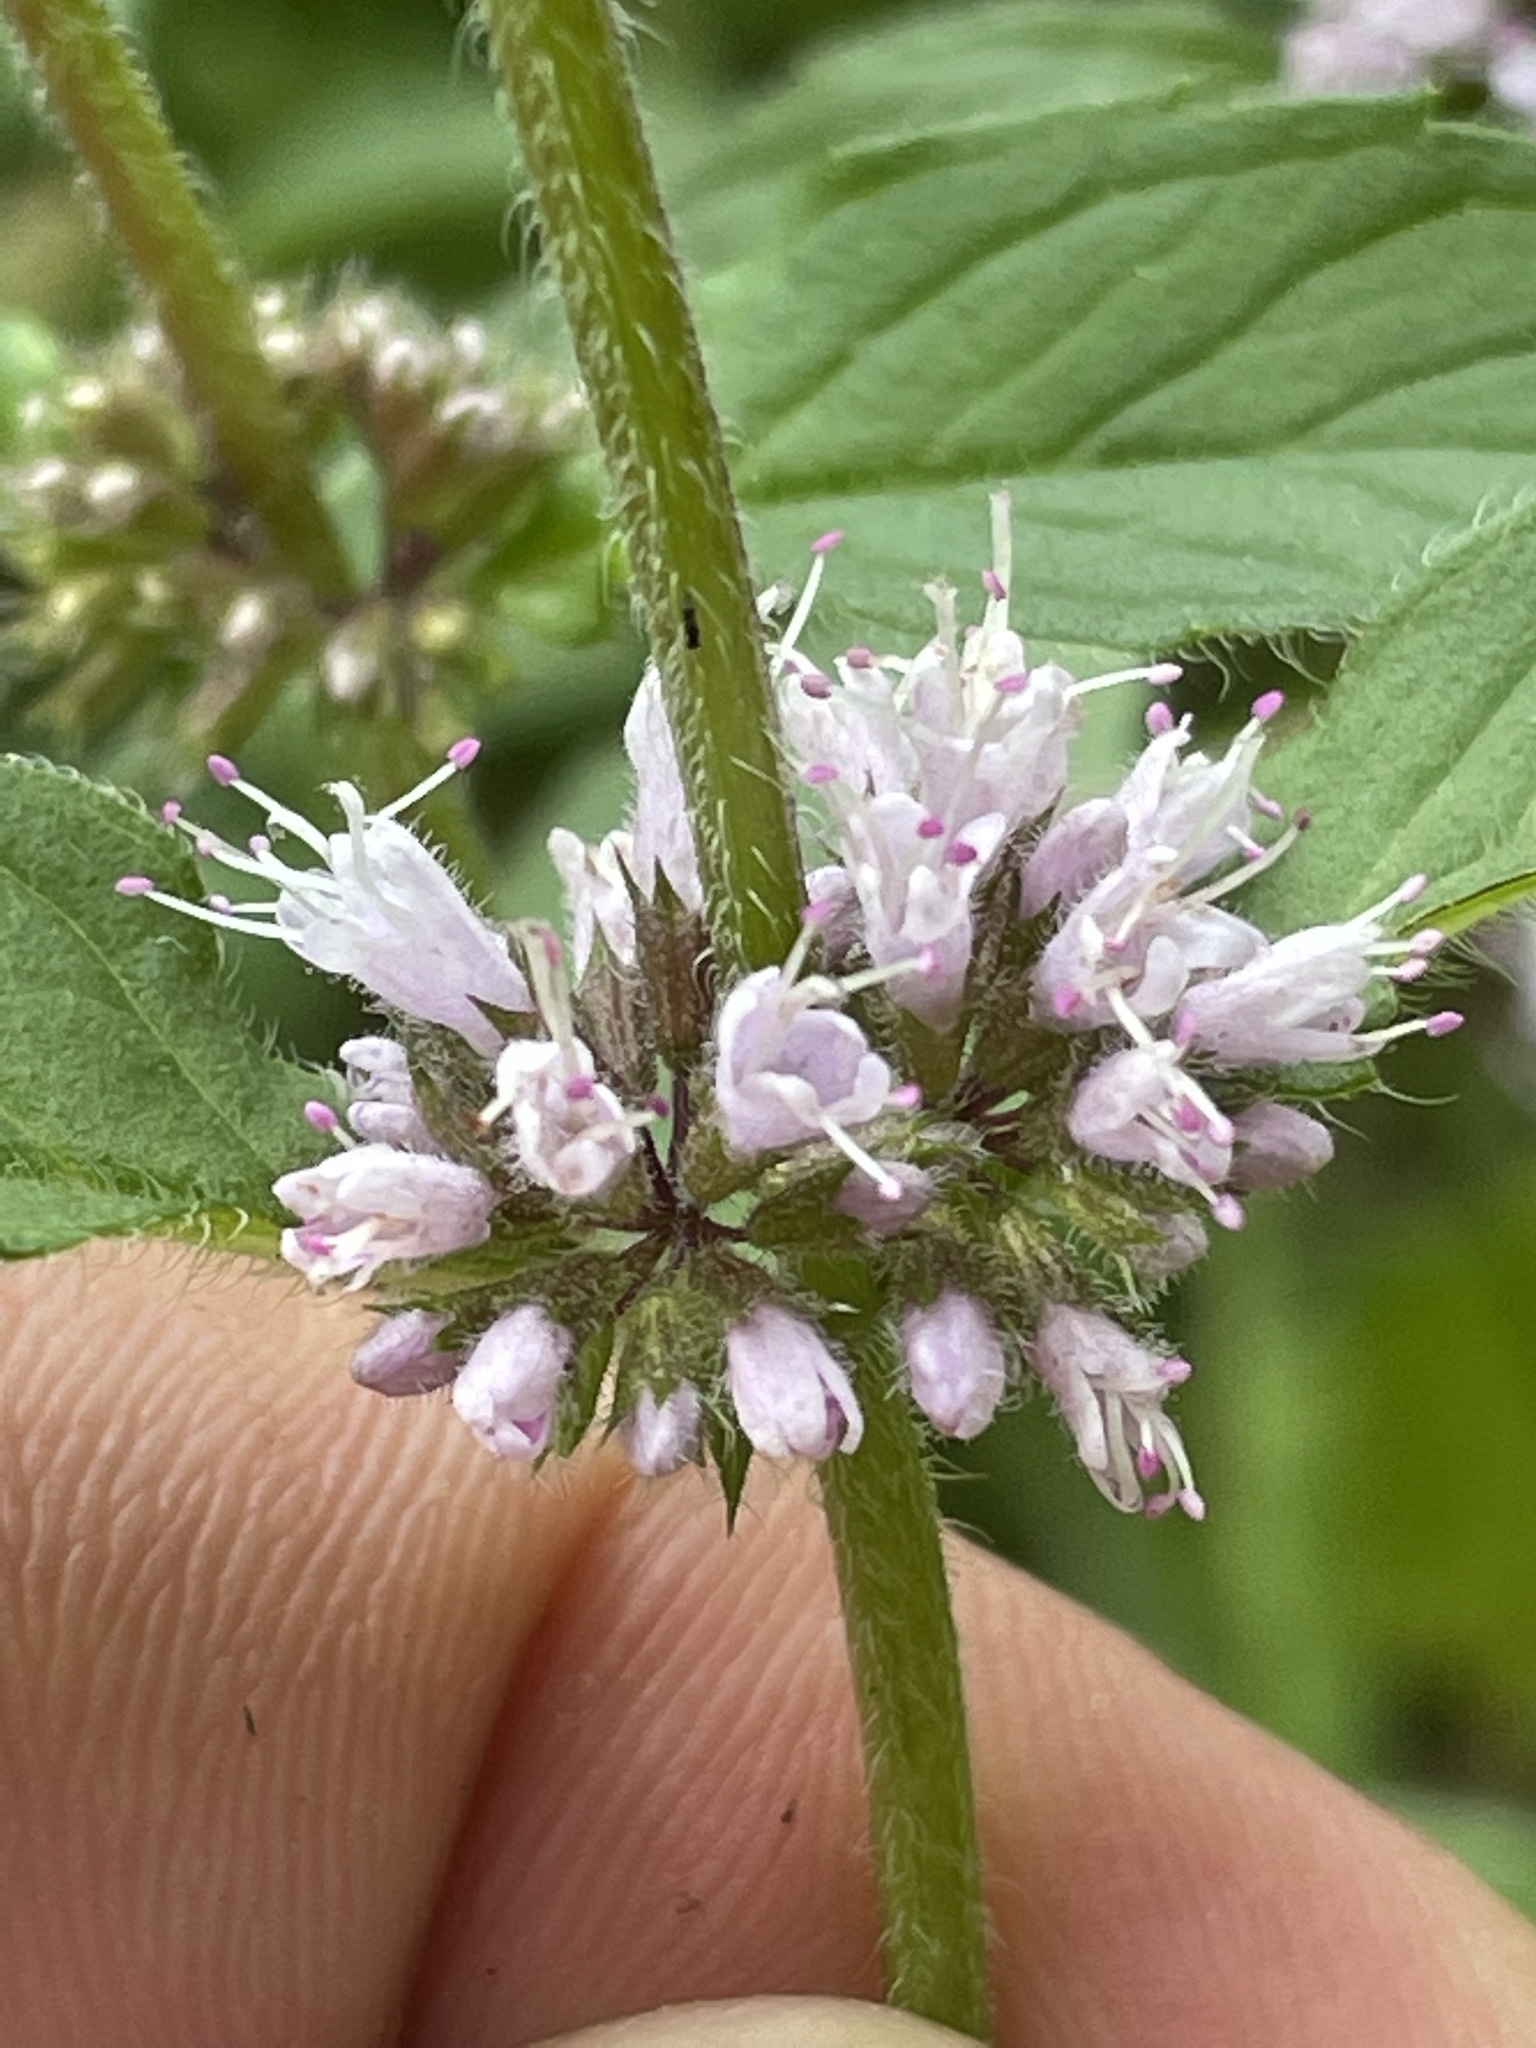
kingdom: Plantae
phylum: Tracheophyta
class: Magnoliopsida
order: Lamiales
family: Lamiaceae
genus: Mentha
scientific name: Mentha verticillata
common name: Mint
